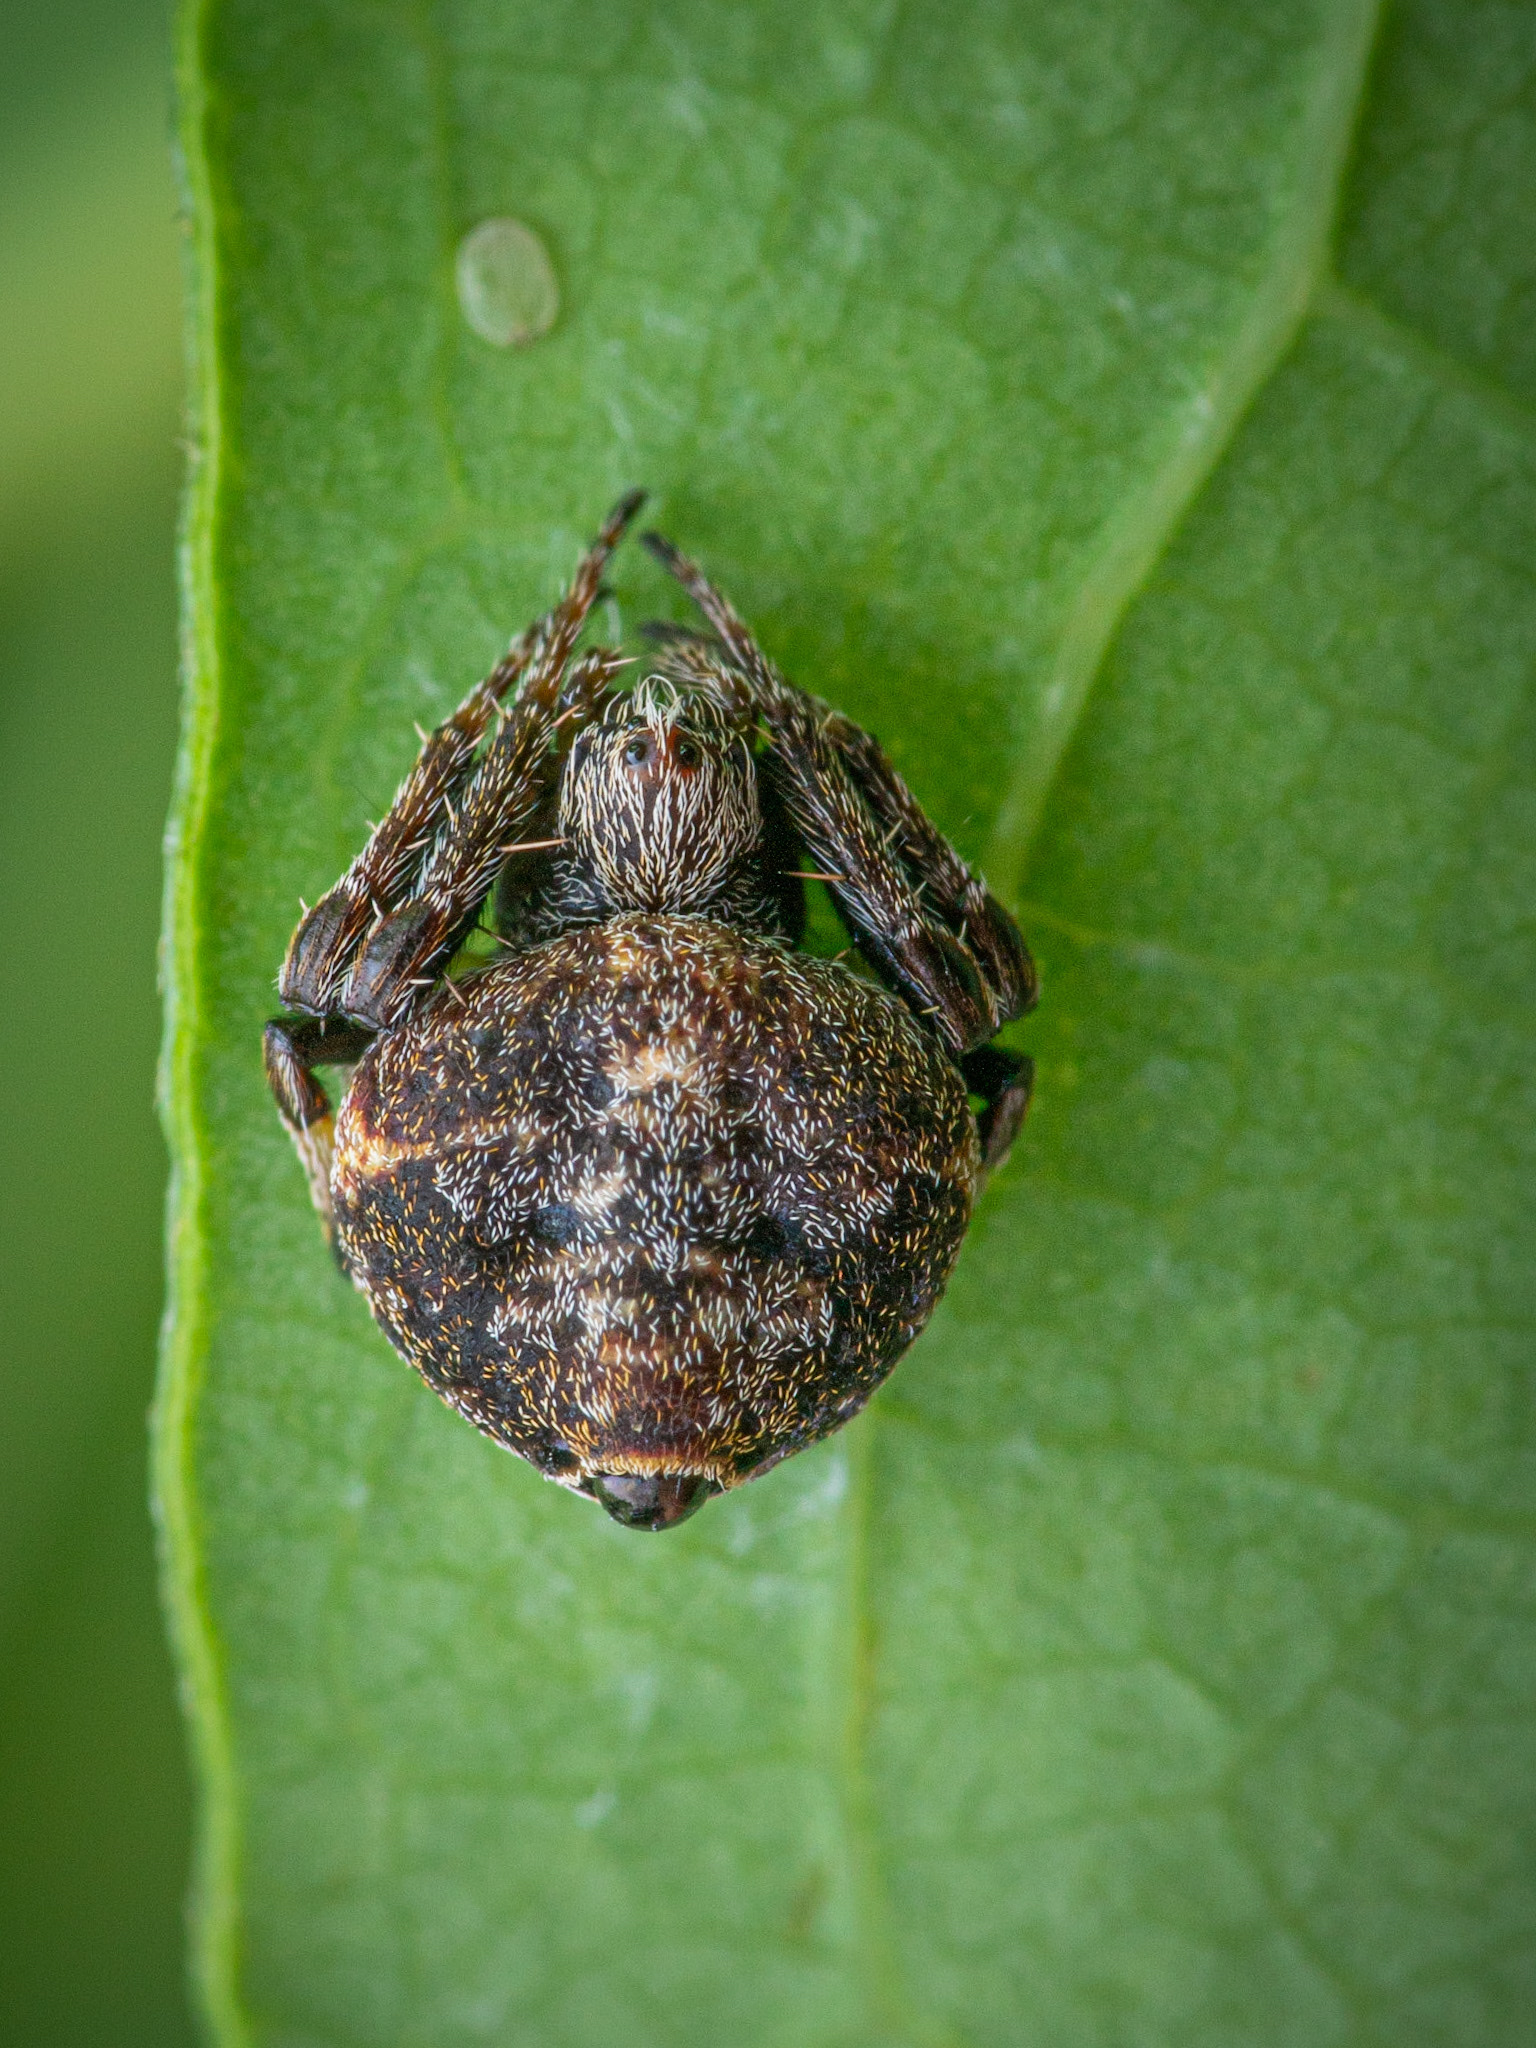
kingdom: Animalia
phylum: Arthropoda
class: Arachnida
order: Araneae
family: Araneidae
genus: Eriovixia
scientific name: Eriovixia excelsa
